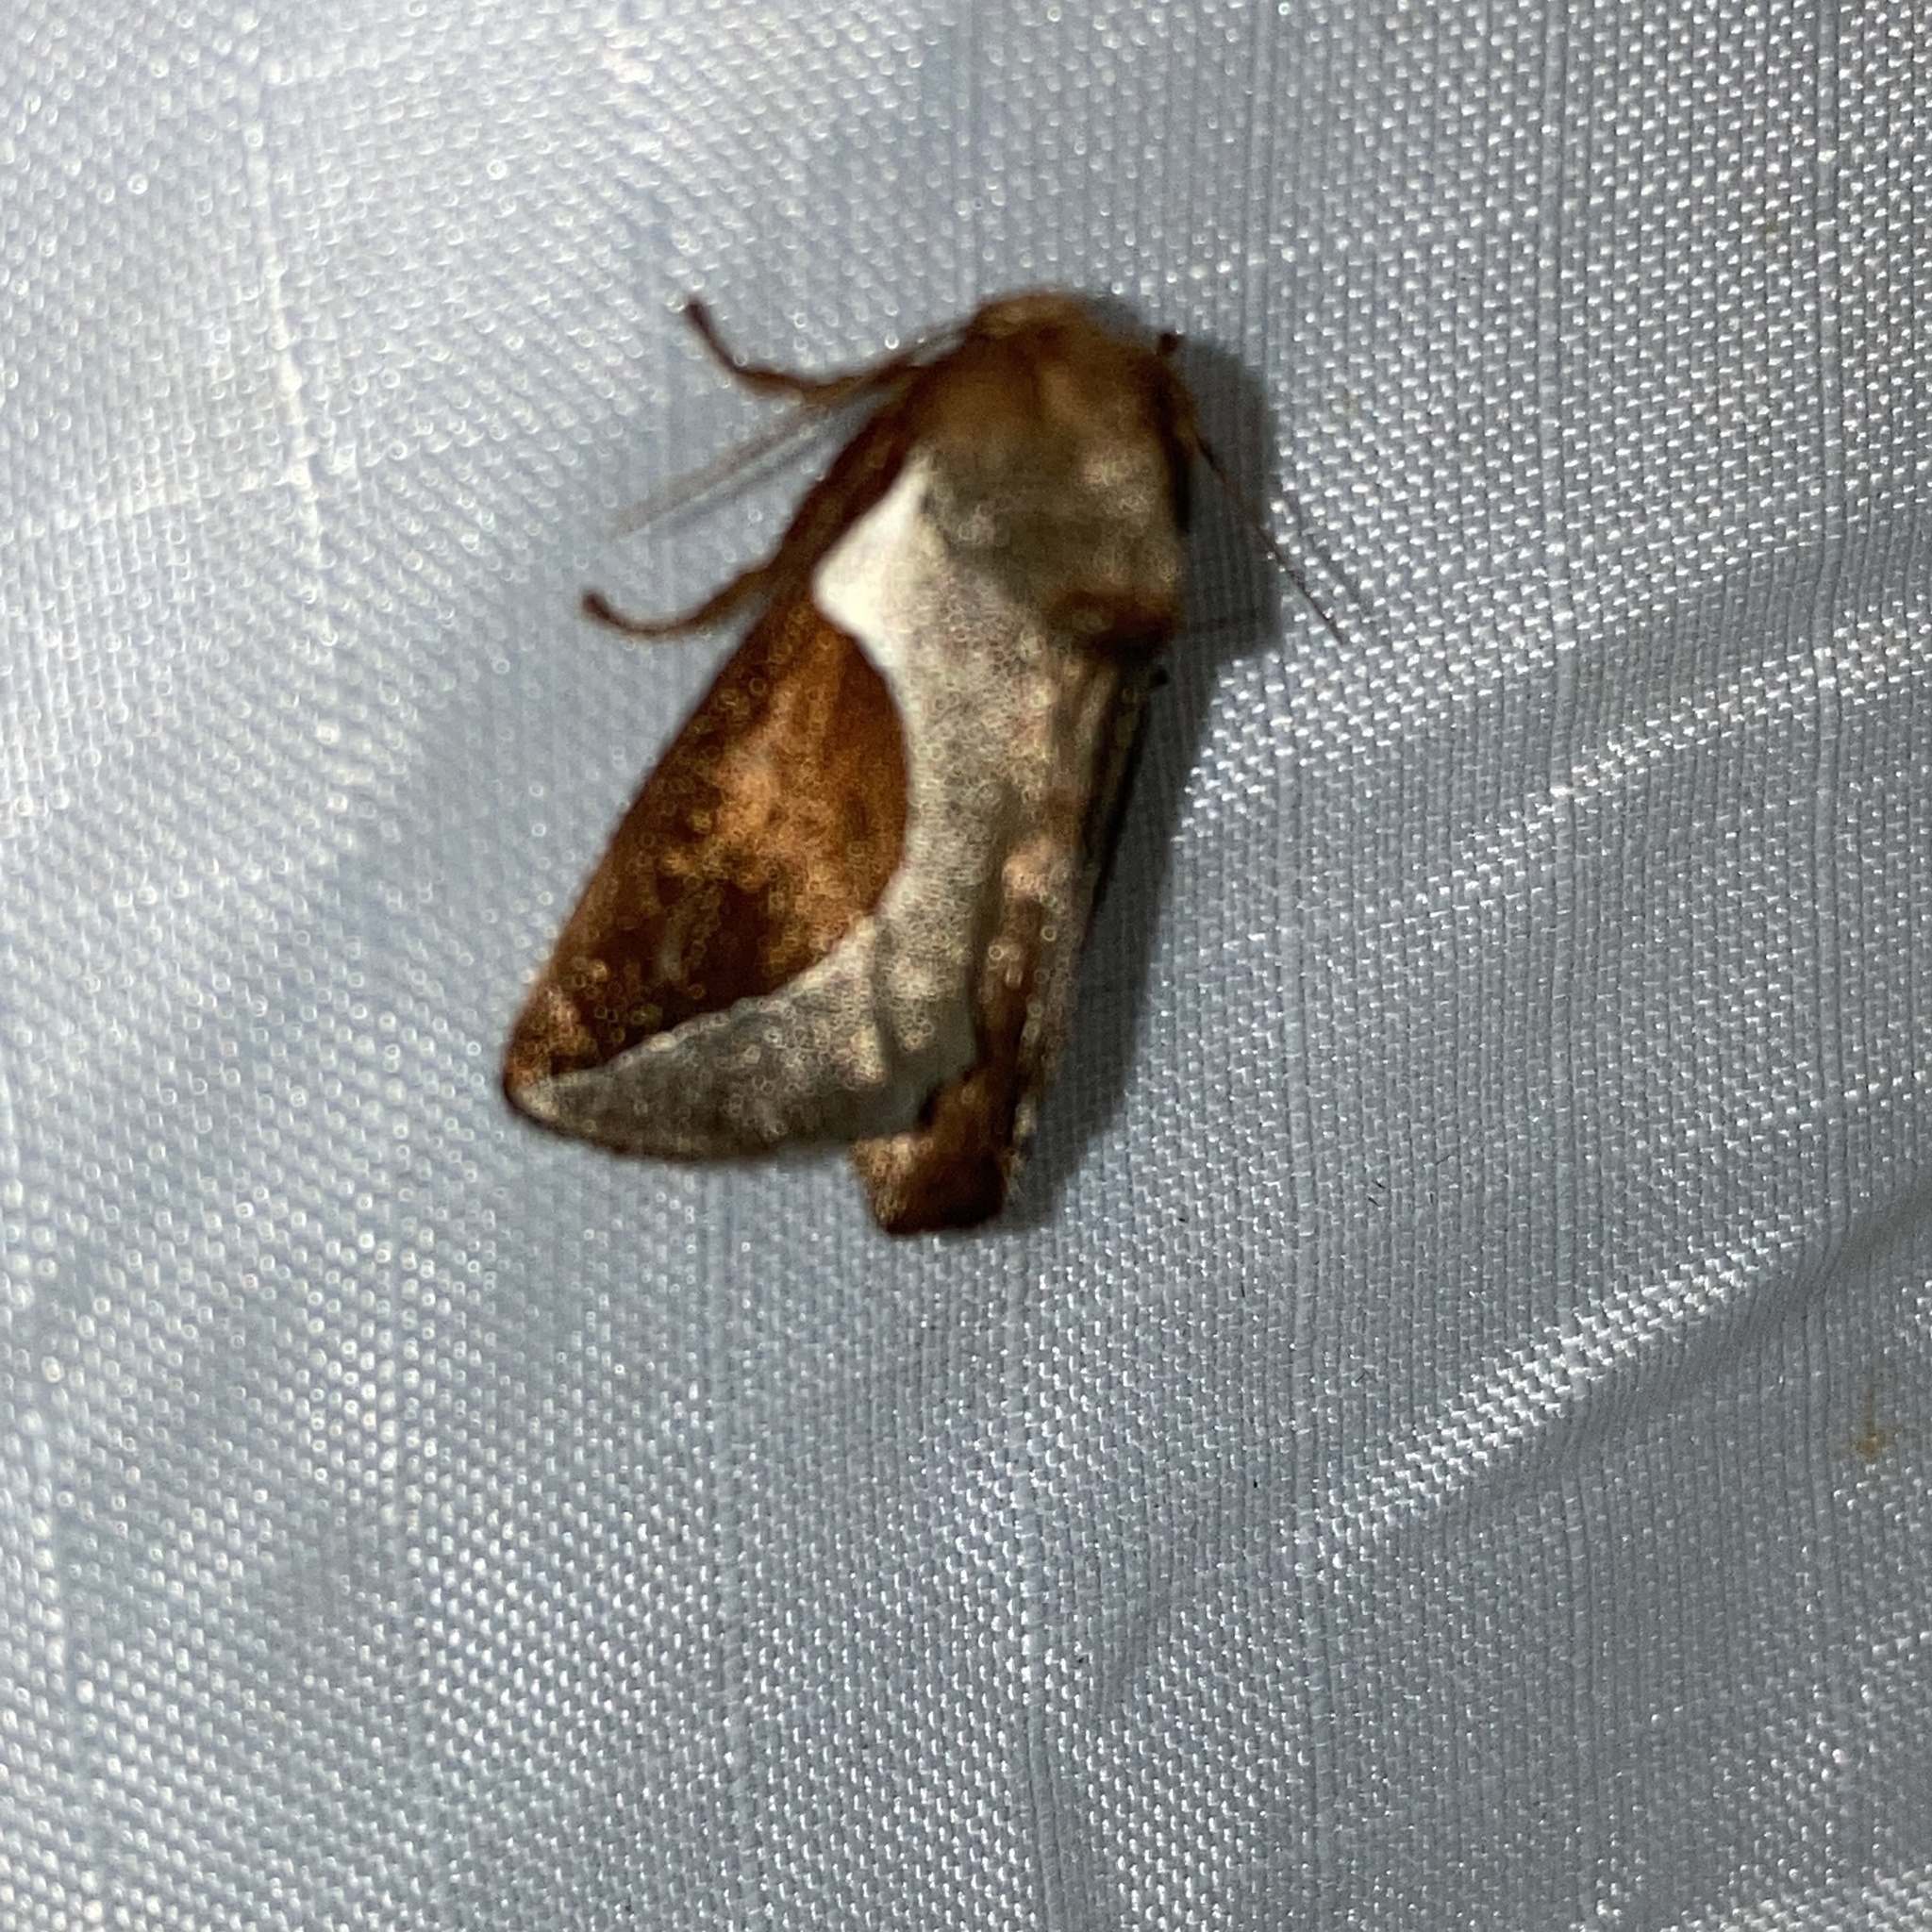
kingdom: Animalia
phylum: Arthropoda
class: Insecta
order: Lepidoptera
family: Limacodidae
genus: Prolimacodes
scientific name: Prolimacodes badia
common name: Skiff moth
